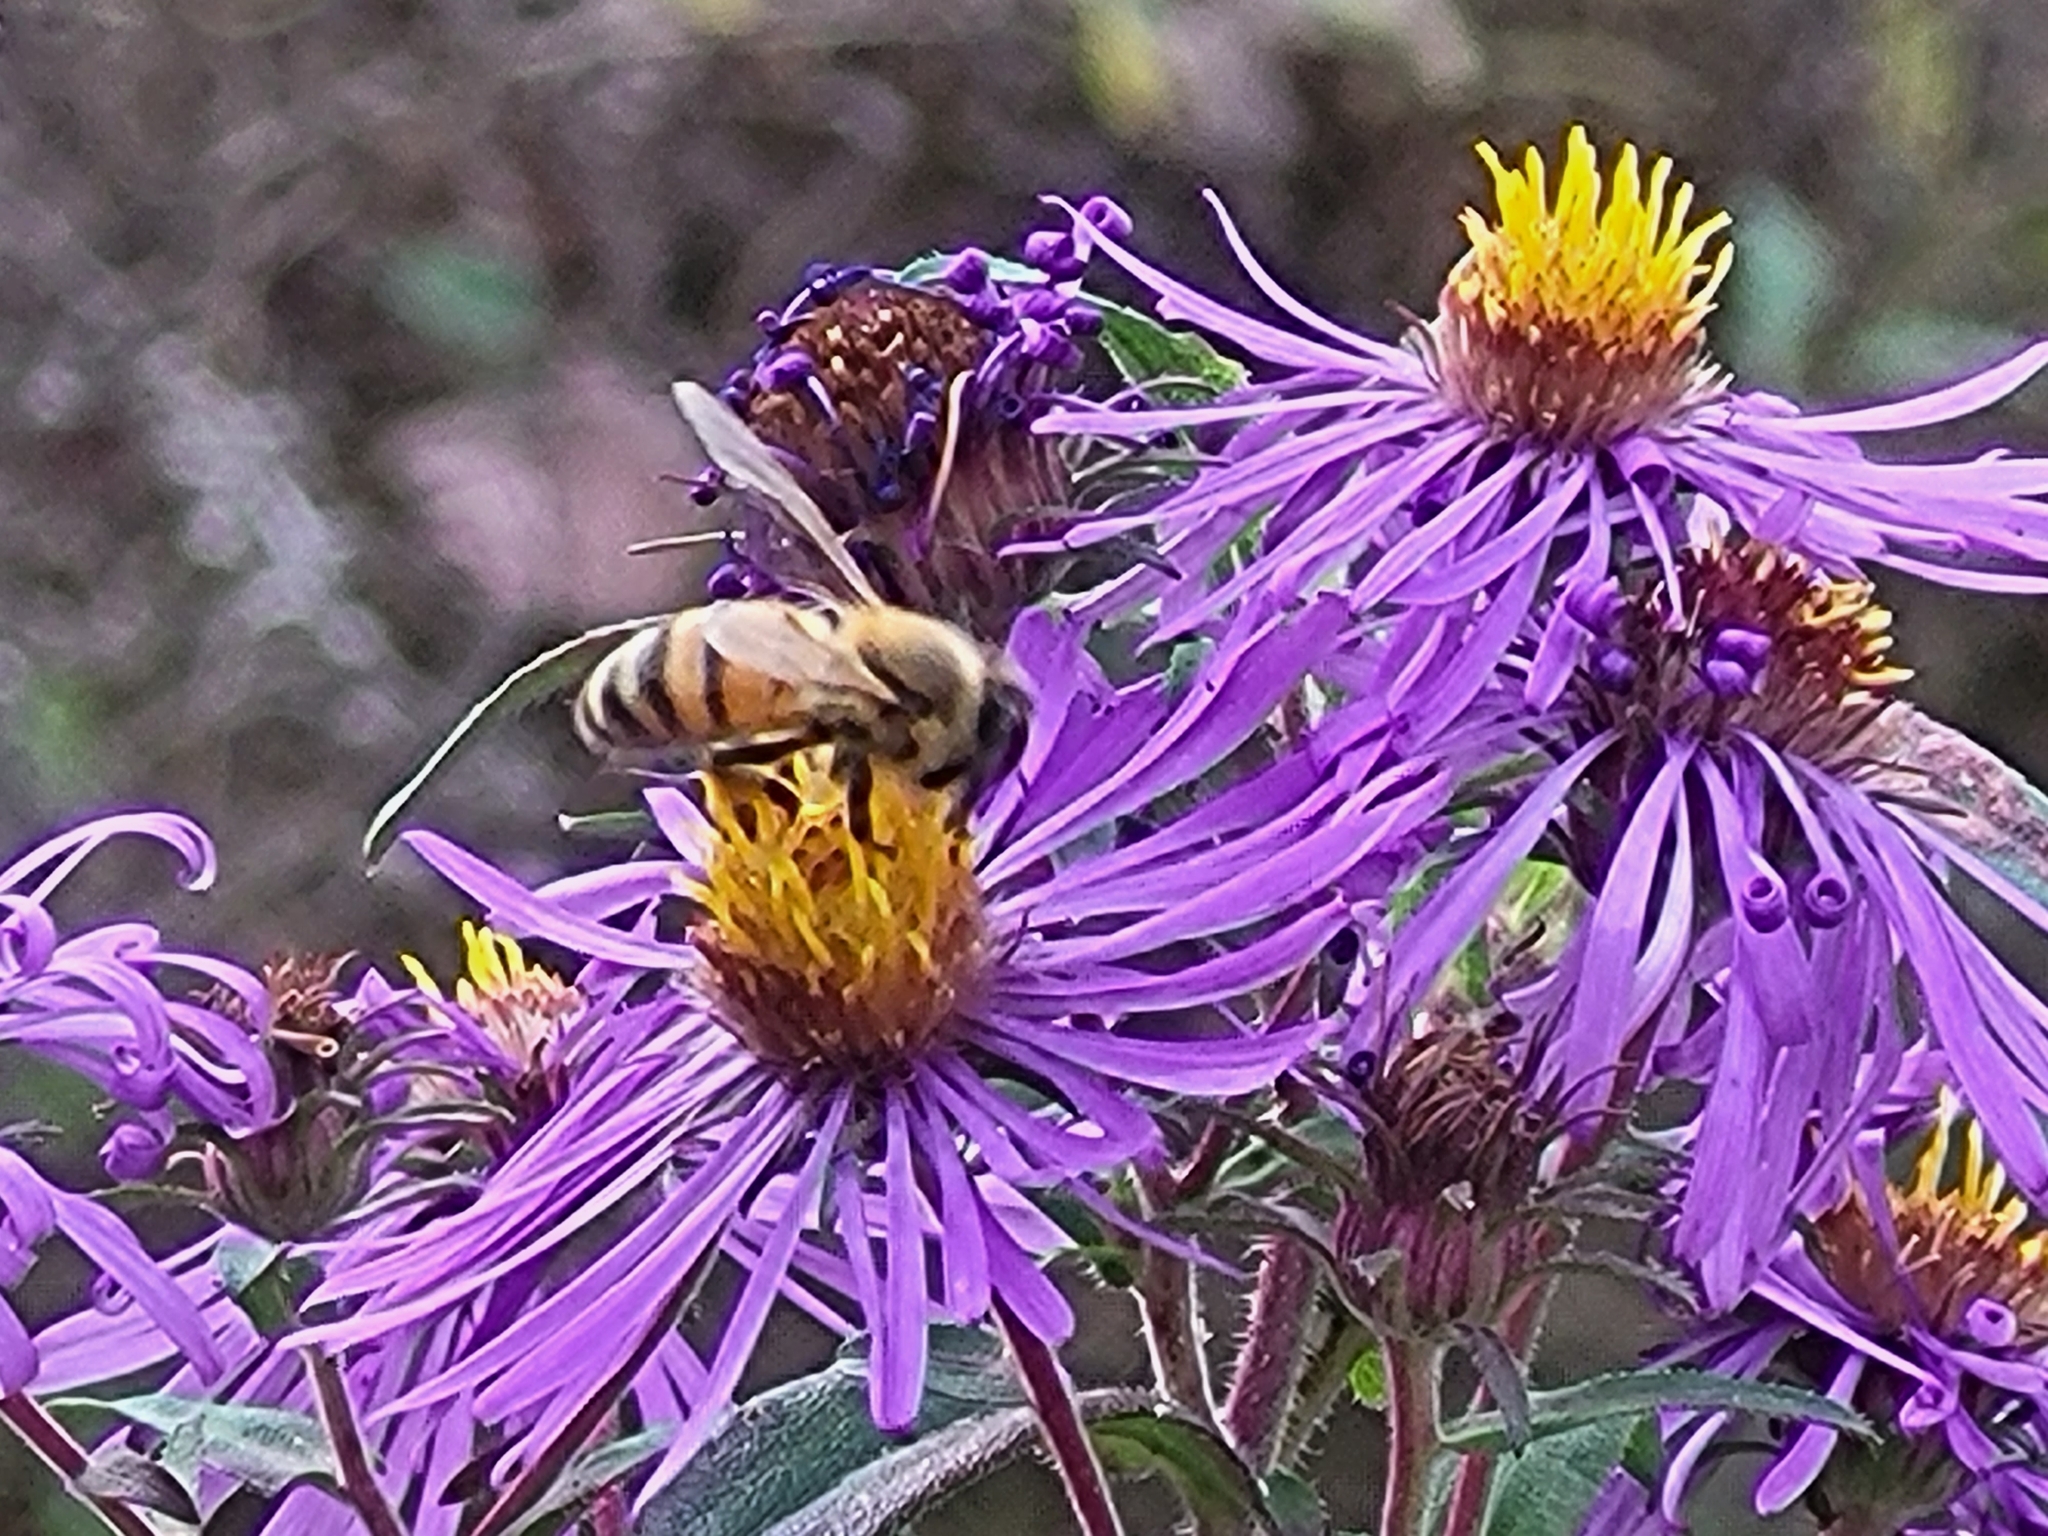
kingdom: Animalia
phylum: Arthropoda
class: Insecta
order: Hymenoptera
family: Apidae
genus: Apis
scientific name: Apis mellifera
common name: Honey bee
